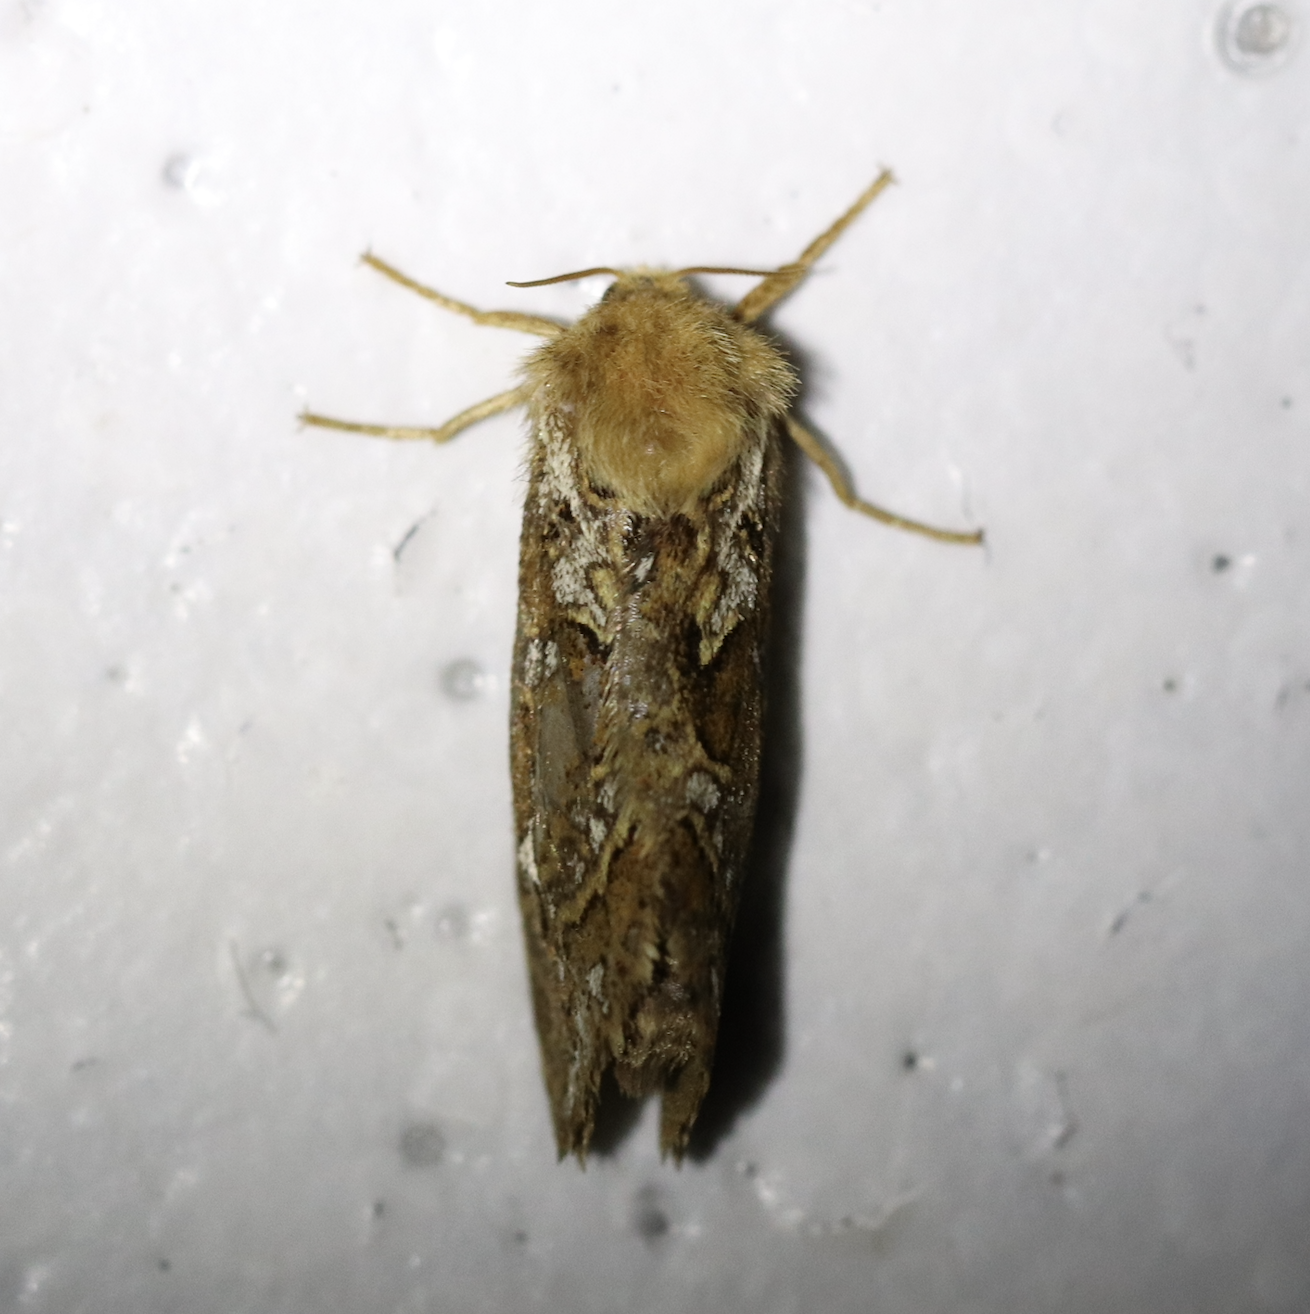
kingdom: Animalia
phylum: Arthropoda
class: Insecta
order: Lepidoptera
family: Hepialidae
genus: Korscheltellus
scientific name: Korscheltellus fusconebulosus
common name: Map-winged swift
